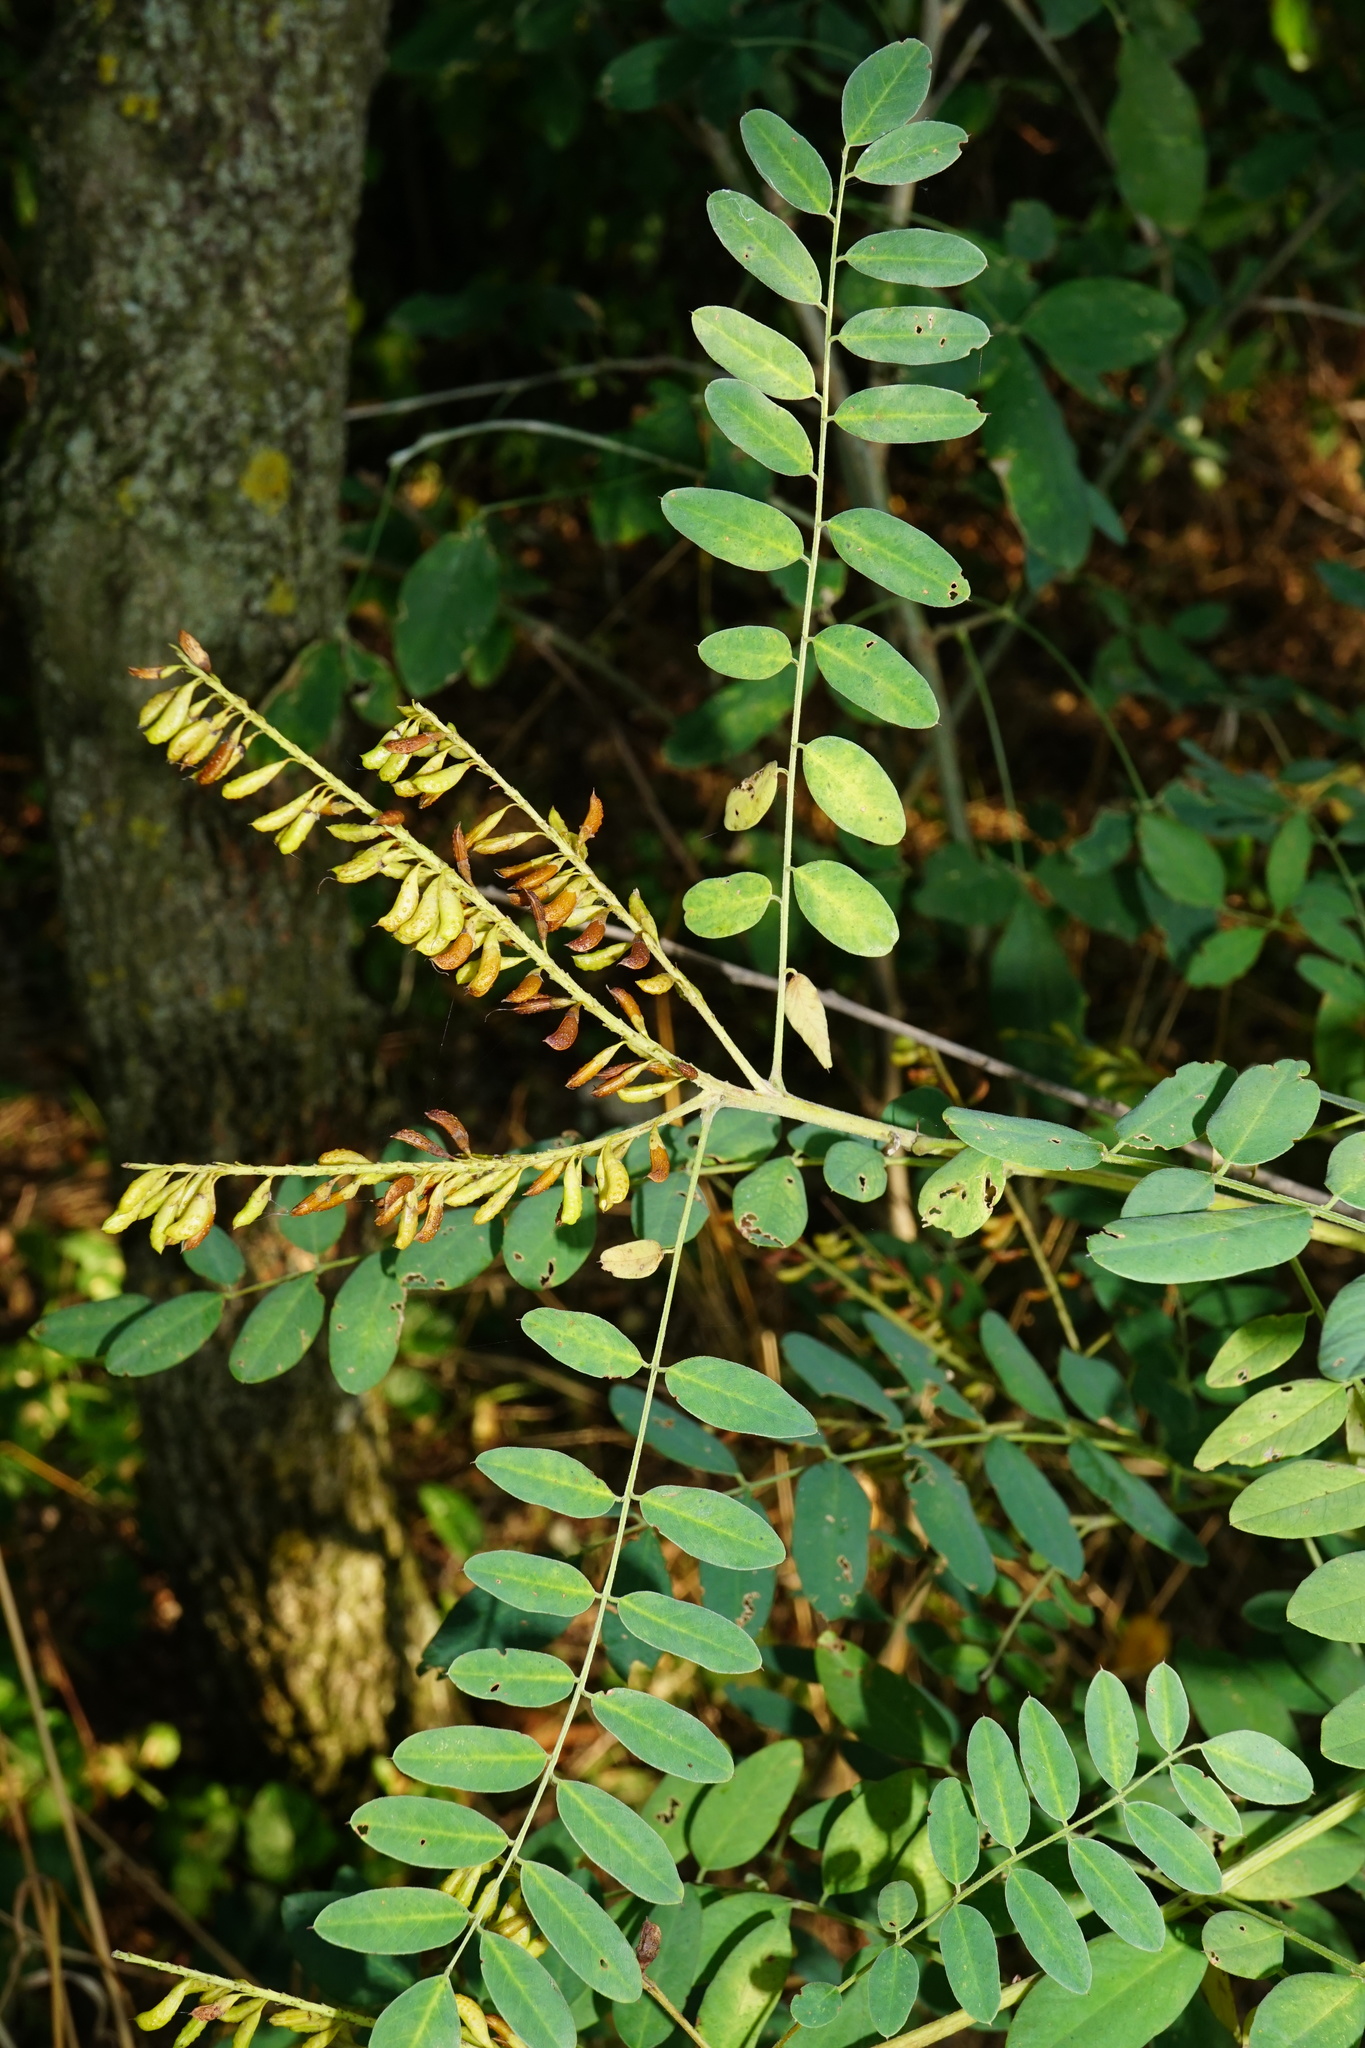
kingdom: Plantae
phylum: Tracheophyta
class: Magnoliopsida
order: Fabales
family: Fabaceae
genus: Amorpha
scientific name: Amorpha fruticosa
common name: False indigo
